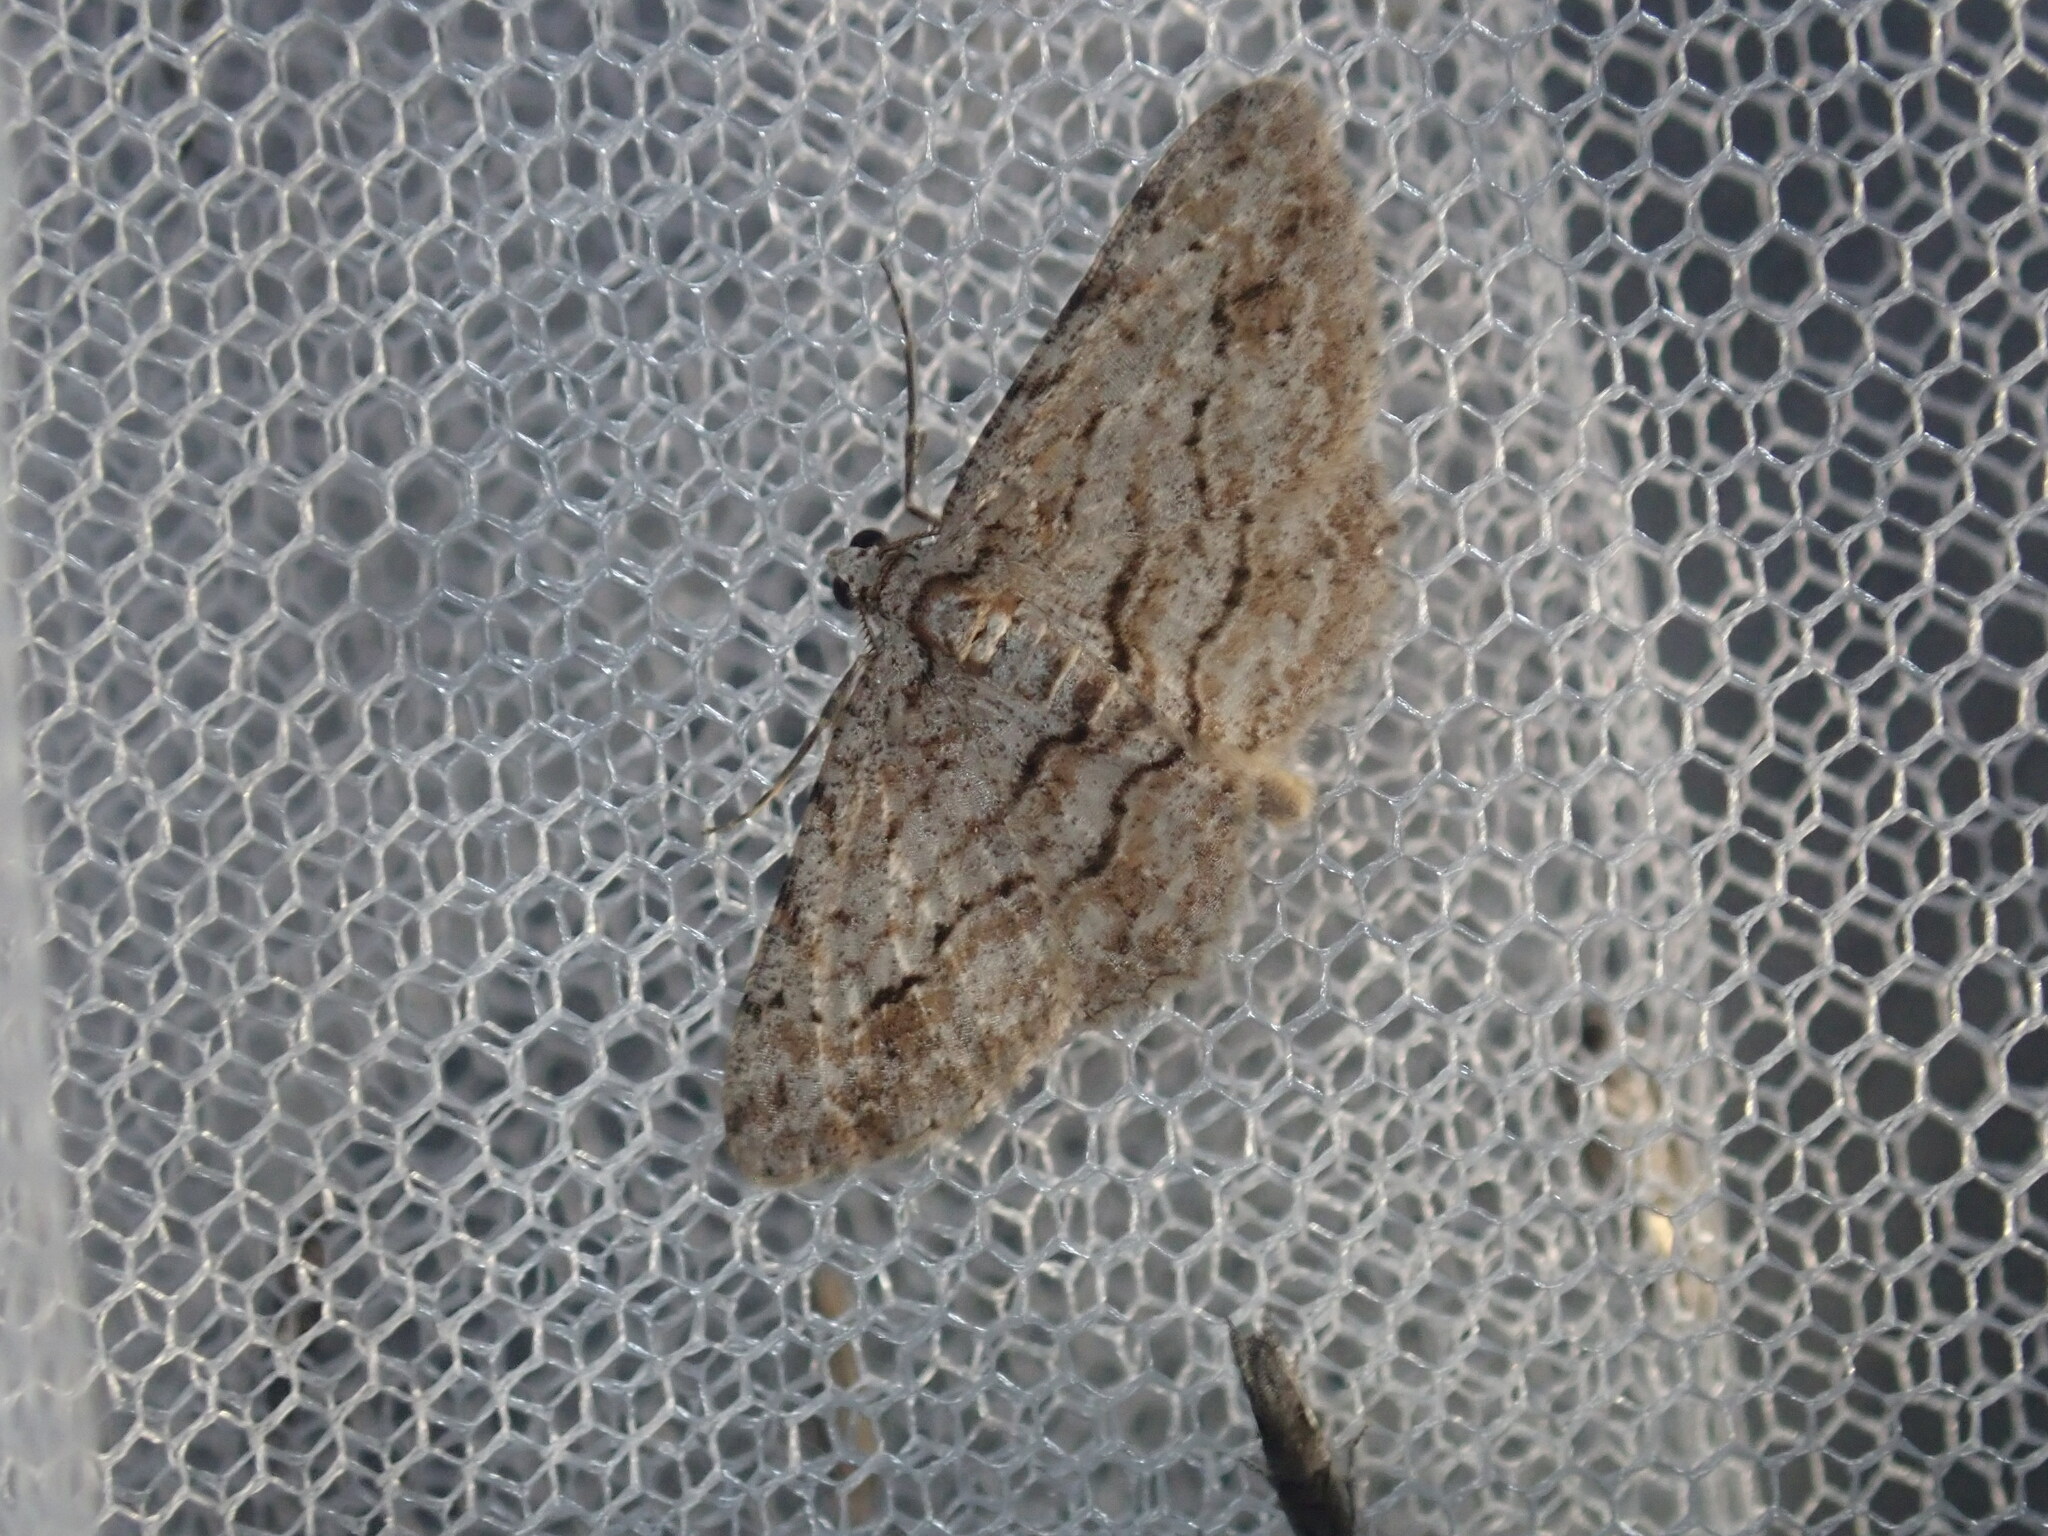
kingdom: Animalia
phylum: Arthropoda
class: Insecta
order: Lepidoptera
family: Geometridae
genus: Didymoctenia
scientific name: Didymoctenia exsuperata
